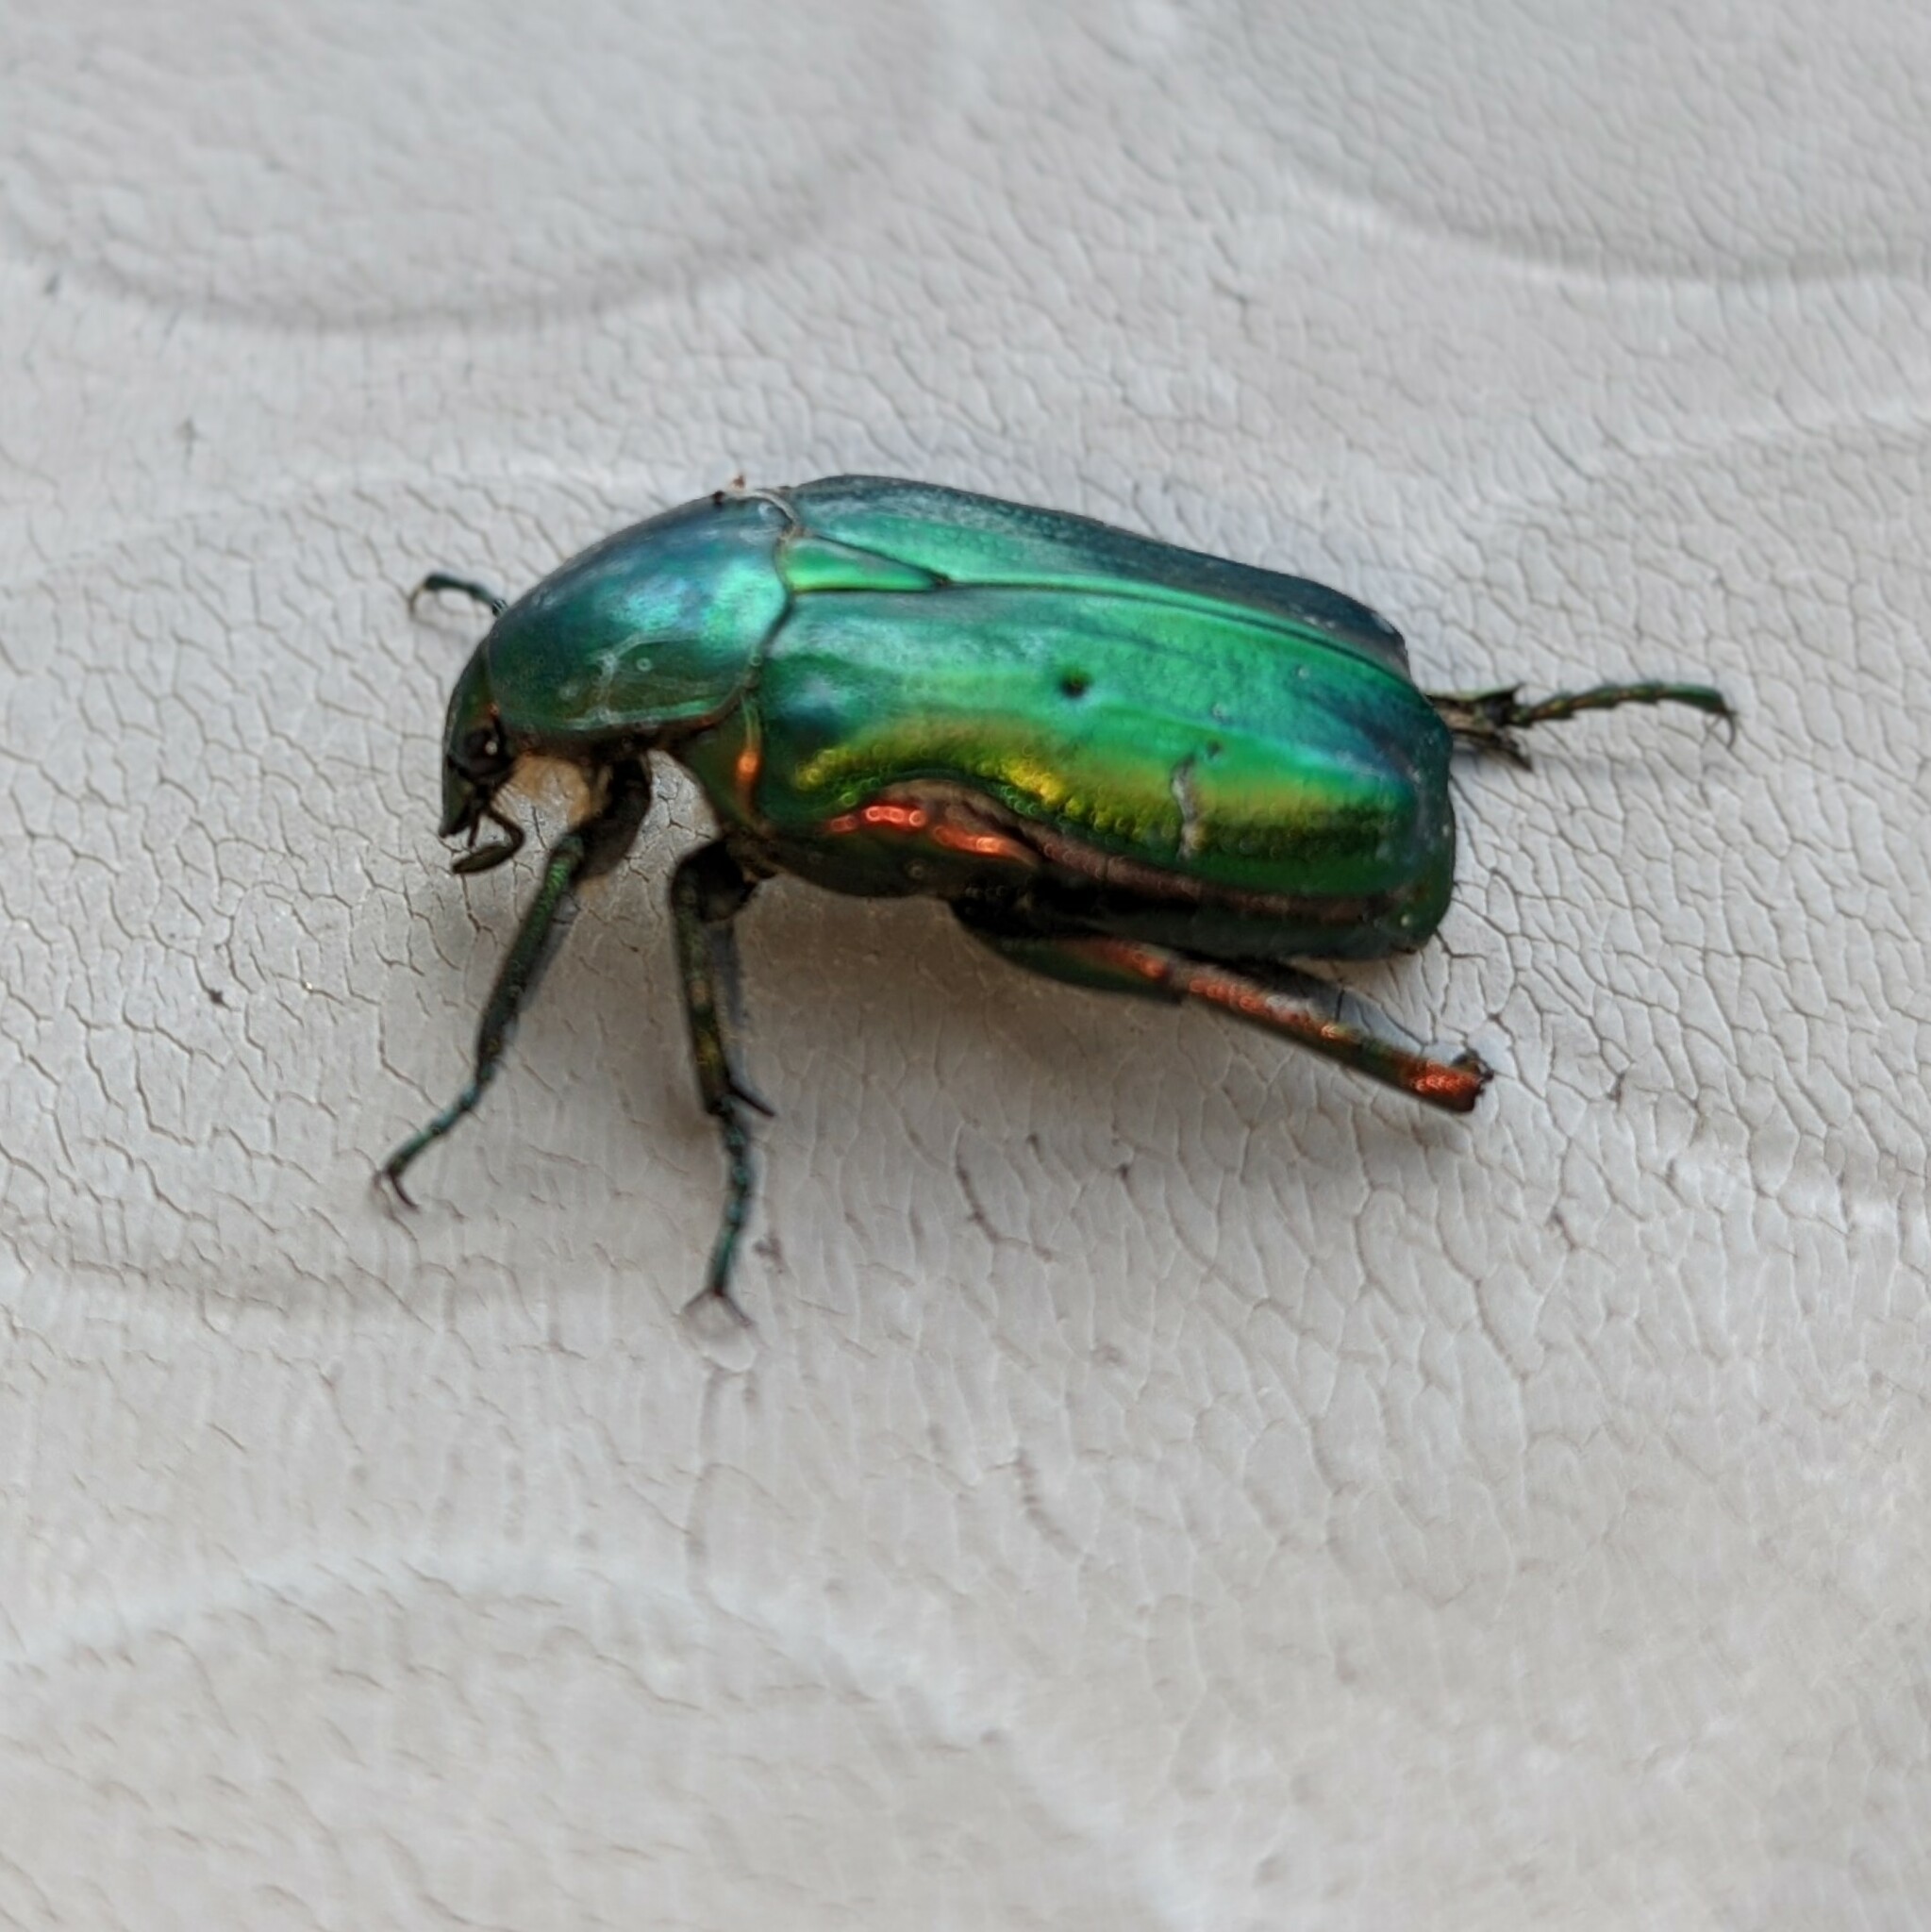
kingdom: Animalia
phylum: Arthropoda
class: Insecta
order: Coleoptera
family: Scarabaeidae
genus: Cetonia
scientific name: Cetonia aurata
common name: Rose chafer
